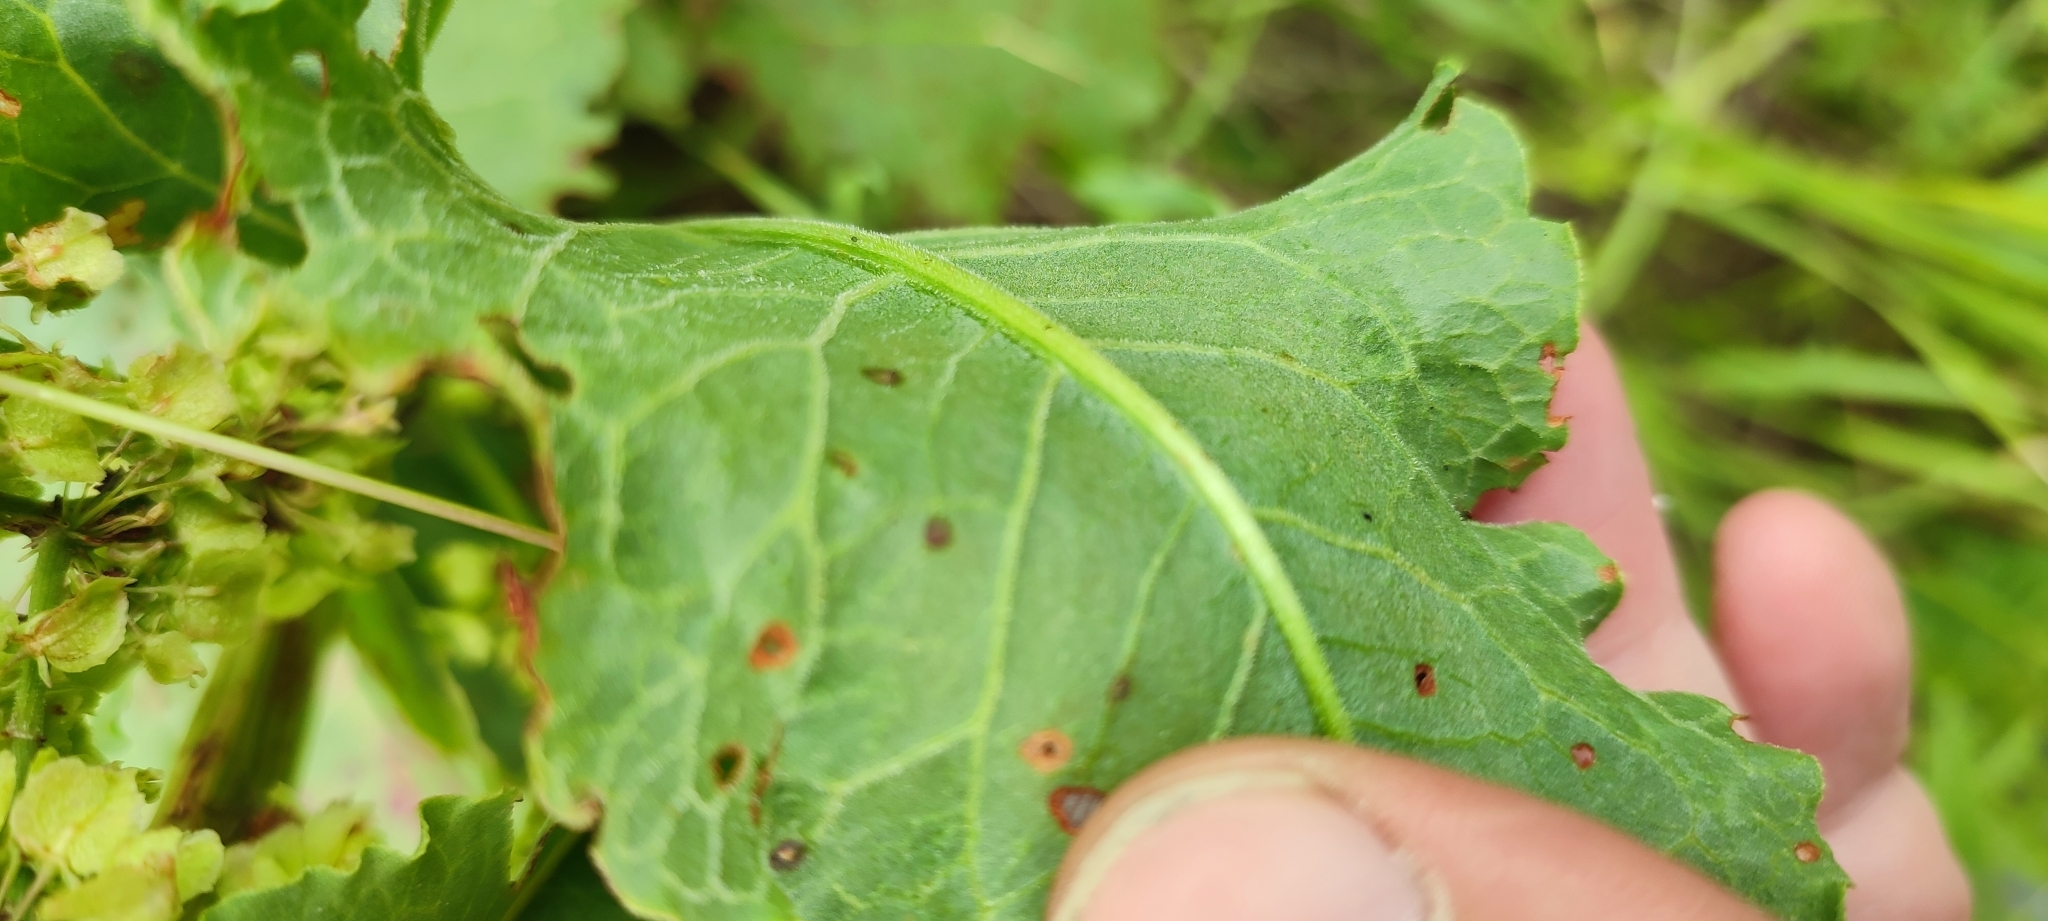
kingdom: Plantae
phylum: Tracheophyta
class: Magnoliopsida
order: Caryophyllales
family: Polygonaceae
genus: Rumex
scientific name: Rumex confertus
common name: Russian dock
